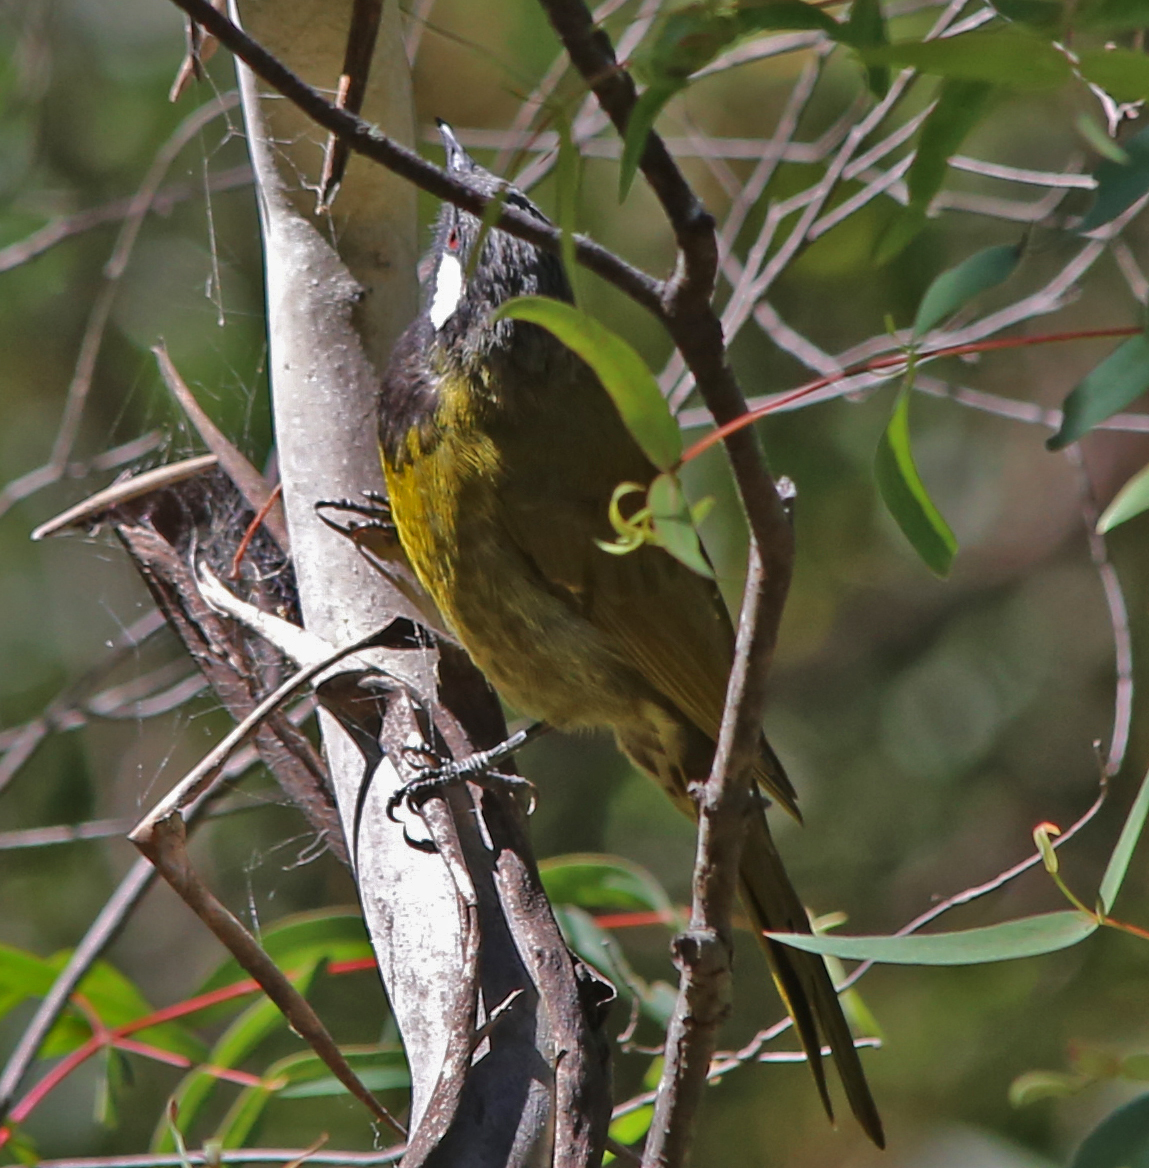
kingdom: Animalia
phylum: Chordata
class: Aves
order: Passeriformes
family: Meliphagidae
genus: Nesoptilotis
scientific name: Nesoptilotis leucotis
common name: White-eared honeyeater
